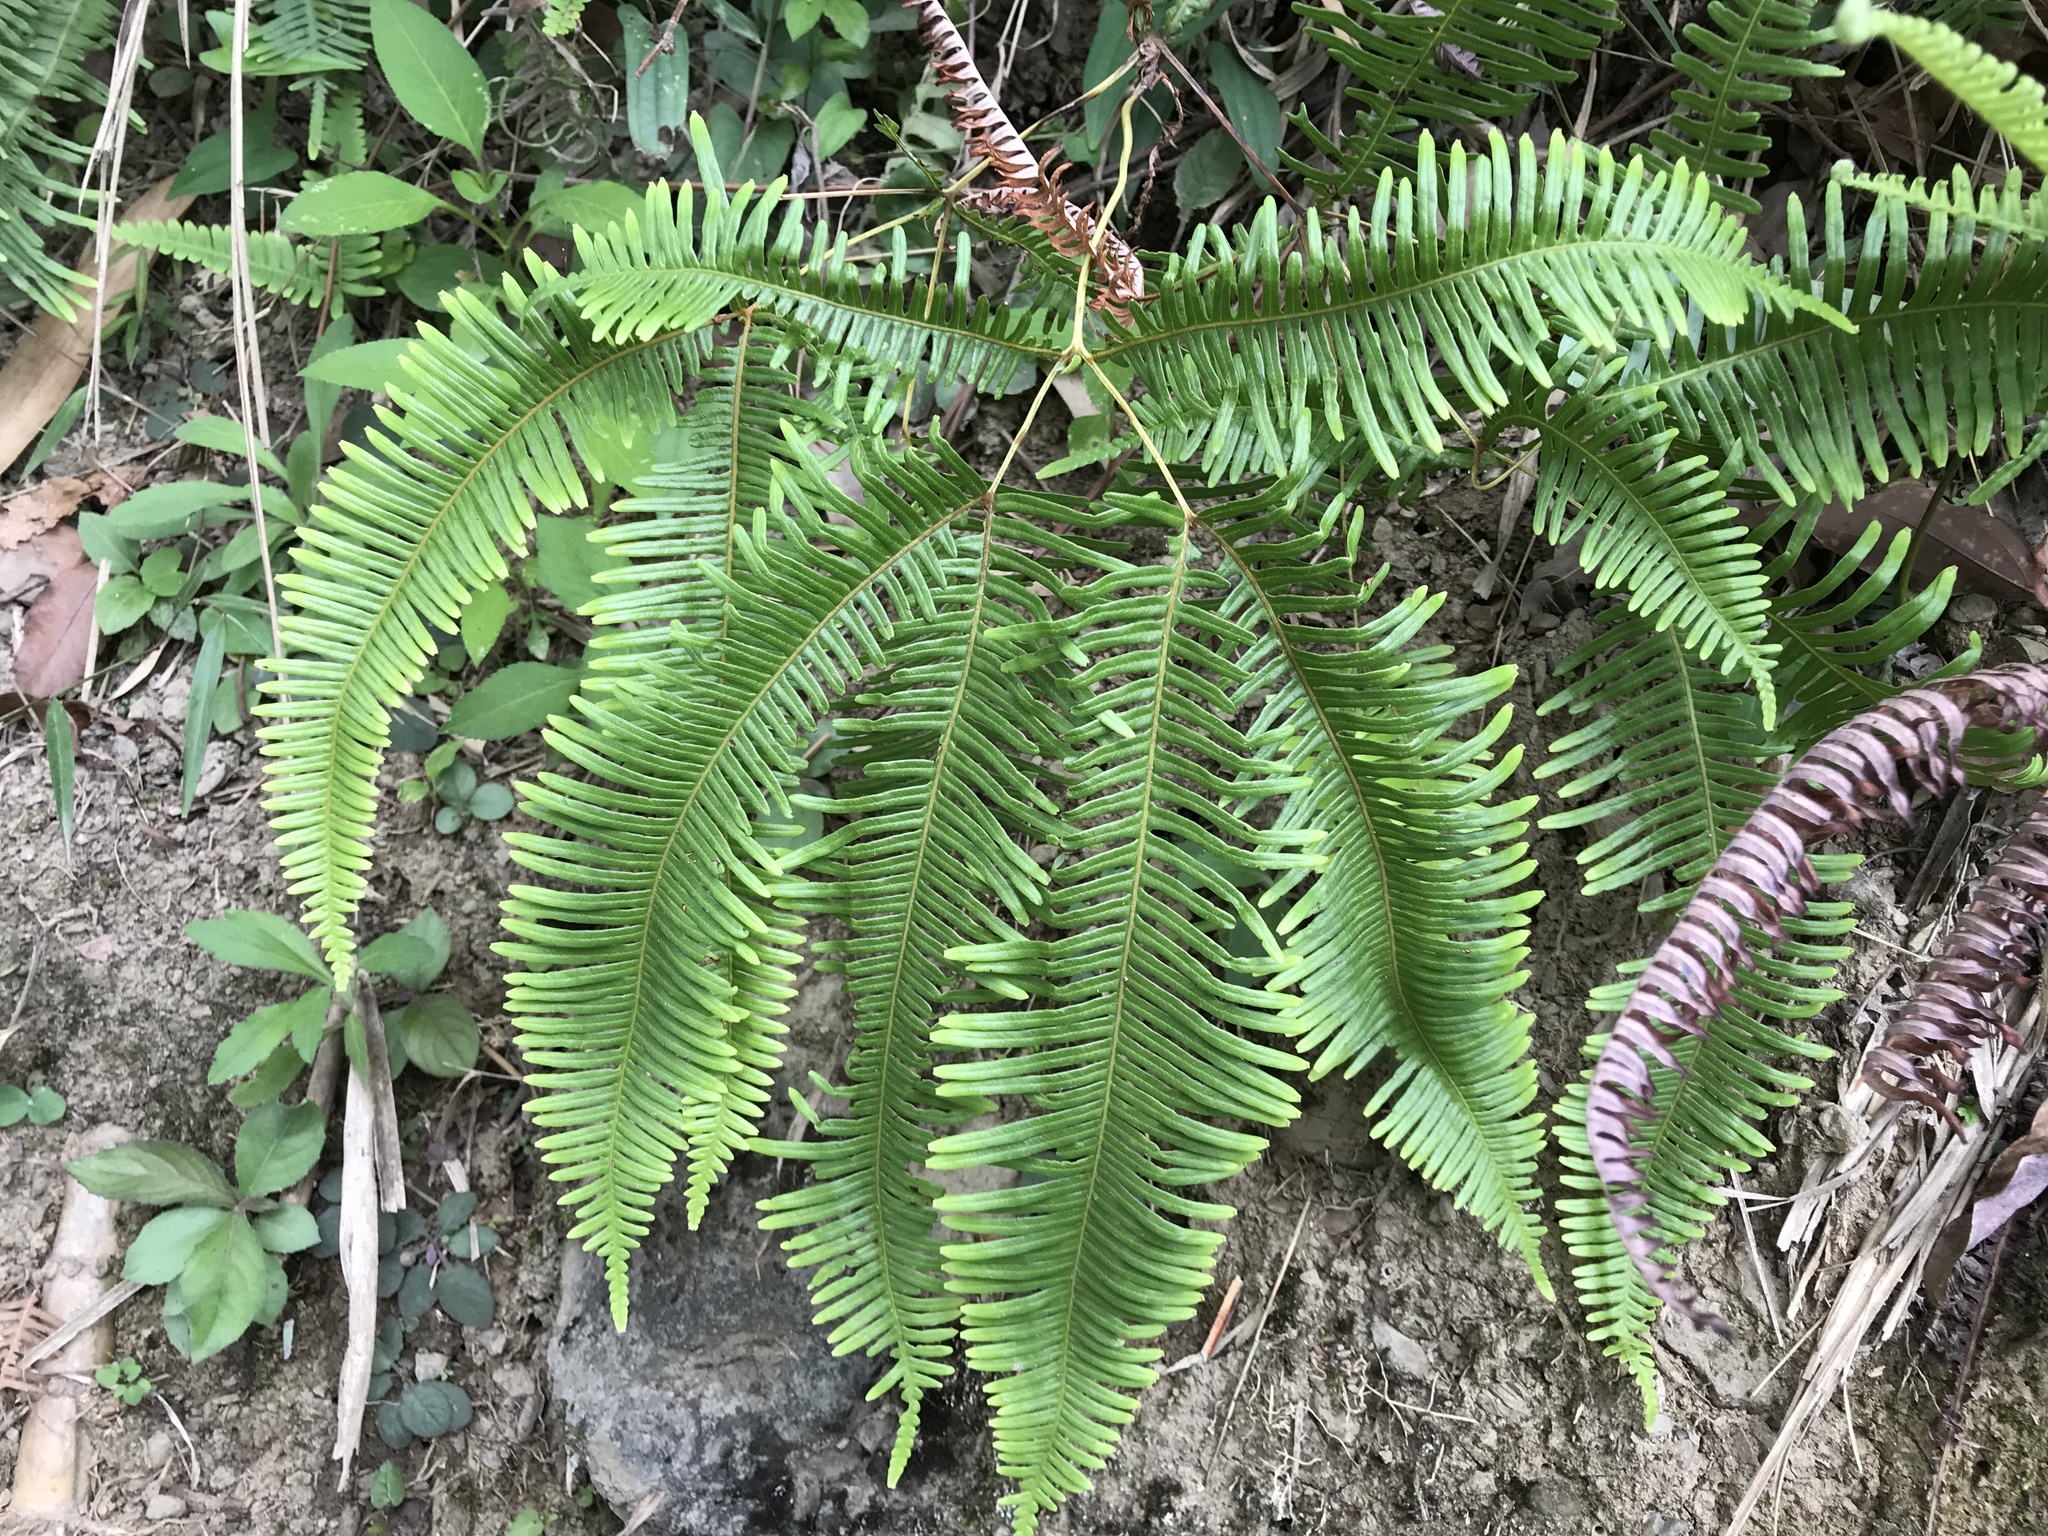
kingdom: Plantae
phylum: Tracheophyta
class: Polypodiopsida
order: Gleicheniales
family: Gleicheniaceae
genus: Dicranopteris
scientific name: Dicranopteris linearis
